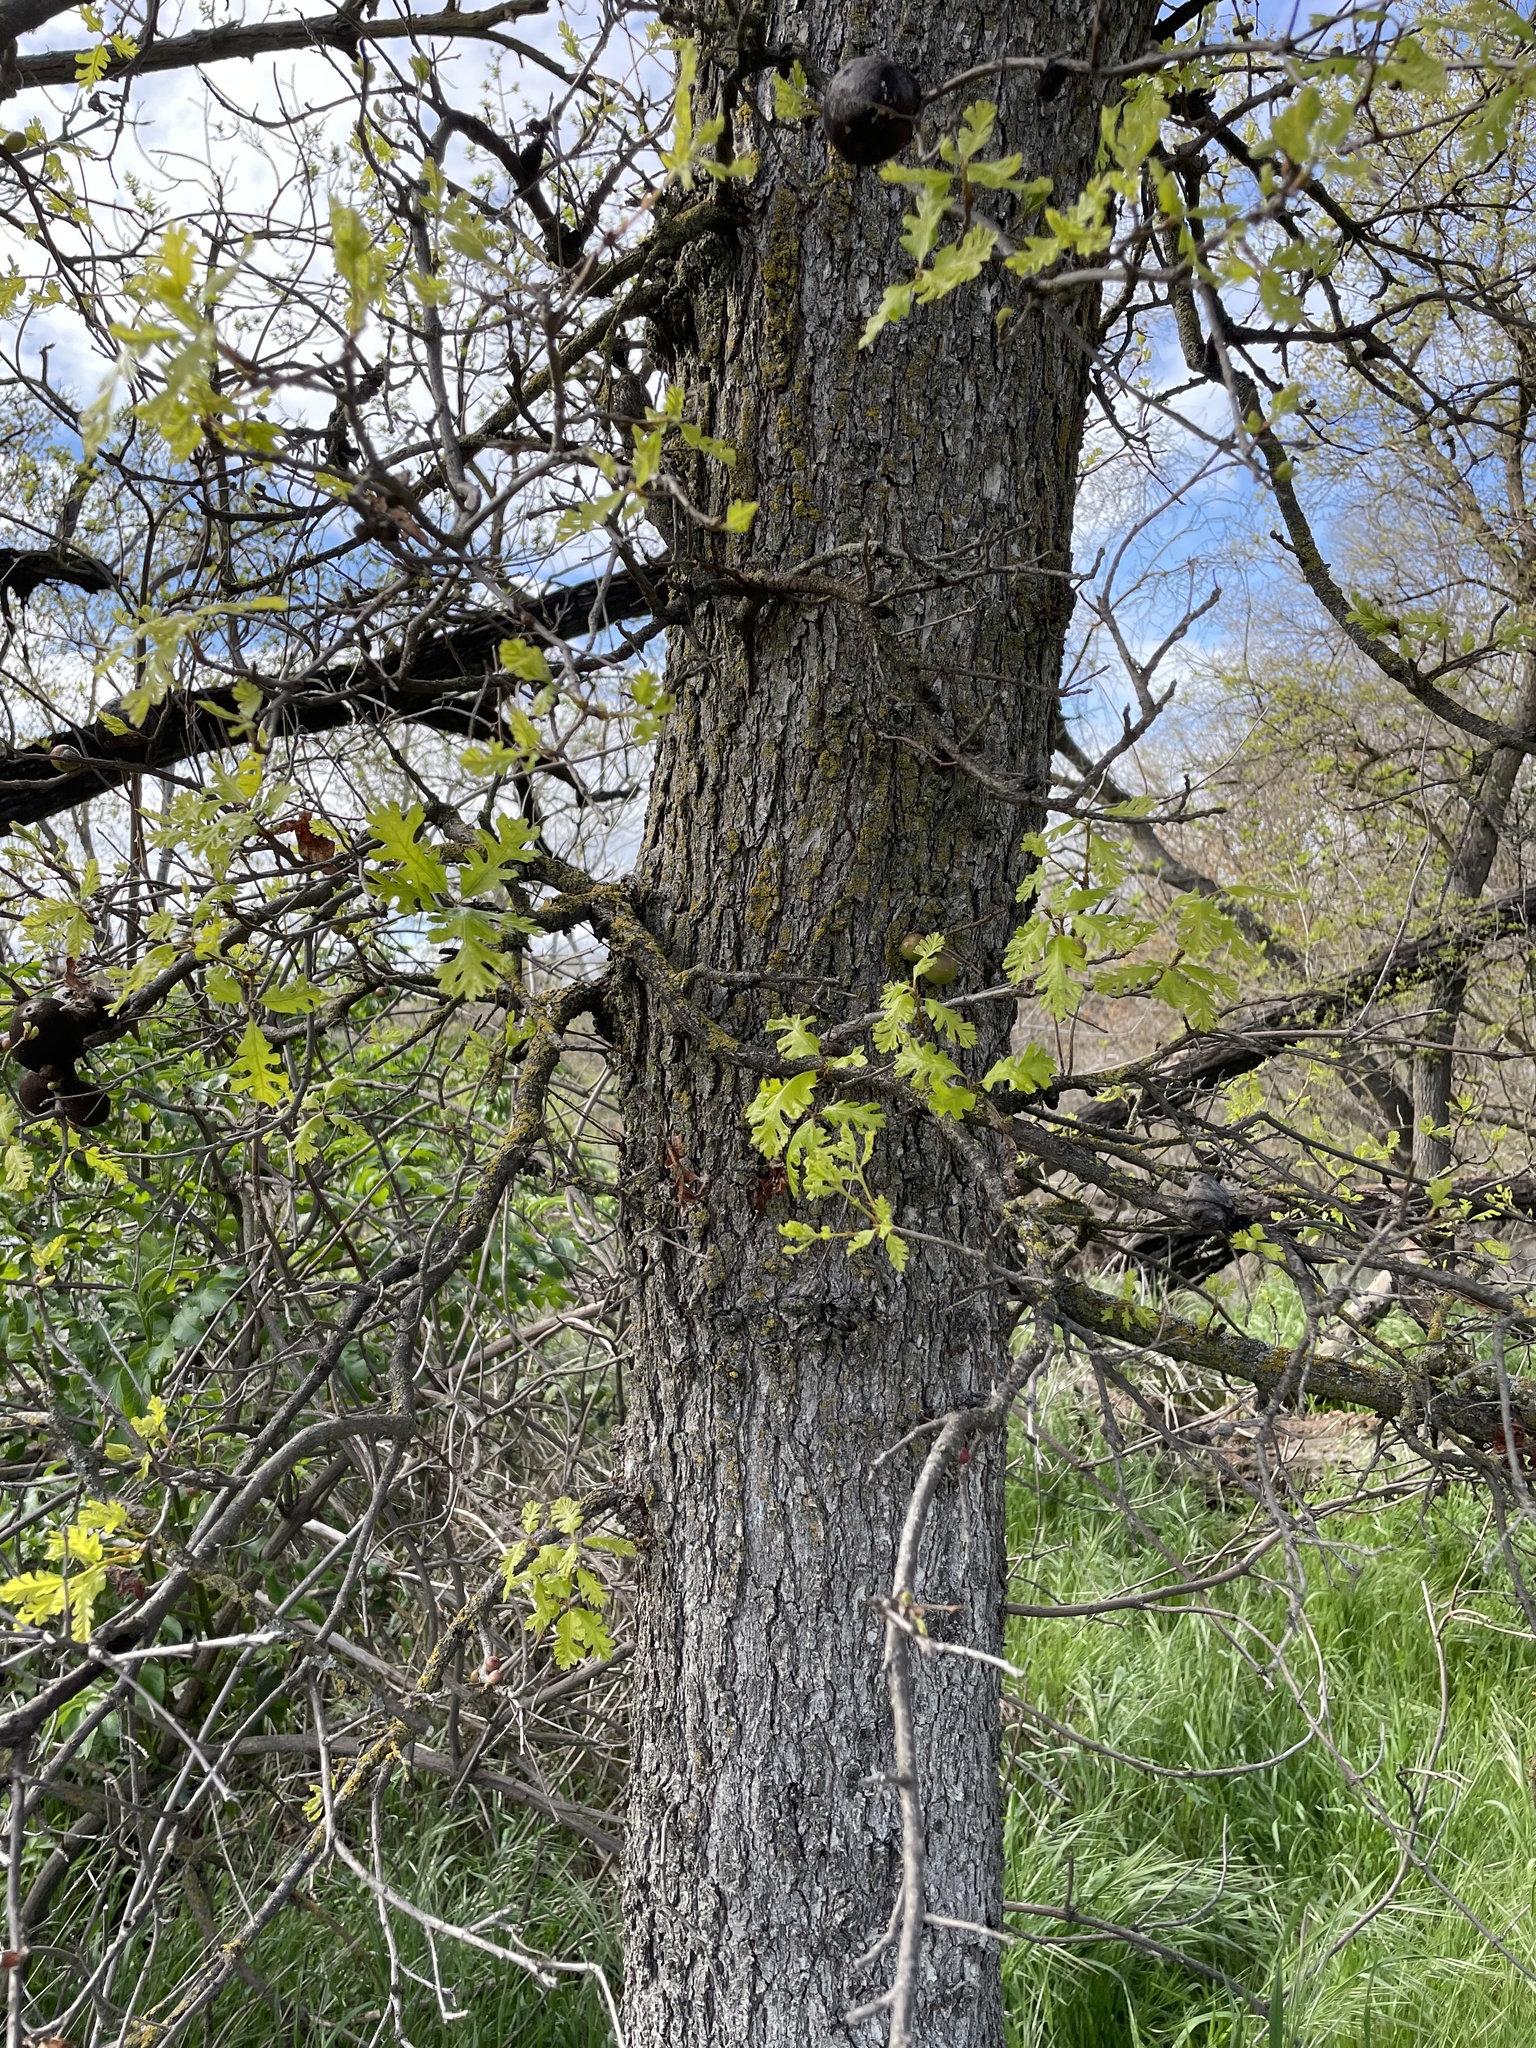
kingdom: Plantae
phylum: Tracheophyta
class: Magnoliopsida
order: Fagales
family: Fagaceae
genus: Quercus
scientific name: Quercus lobata
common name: Valley oak
